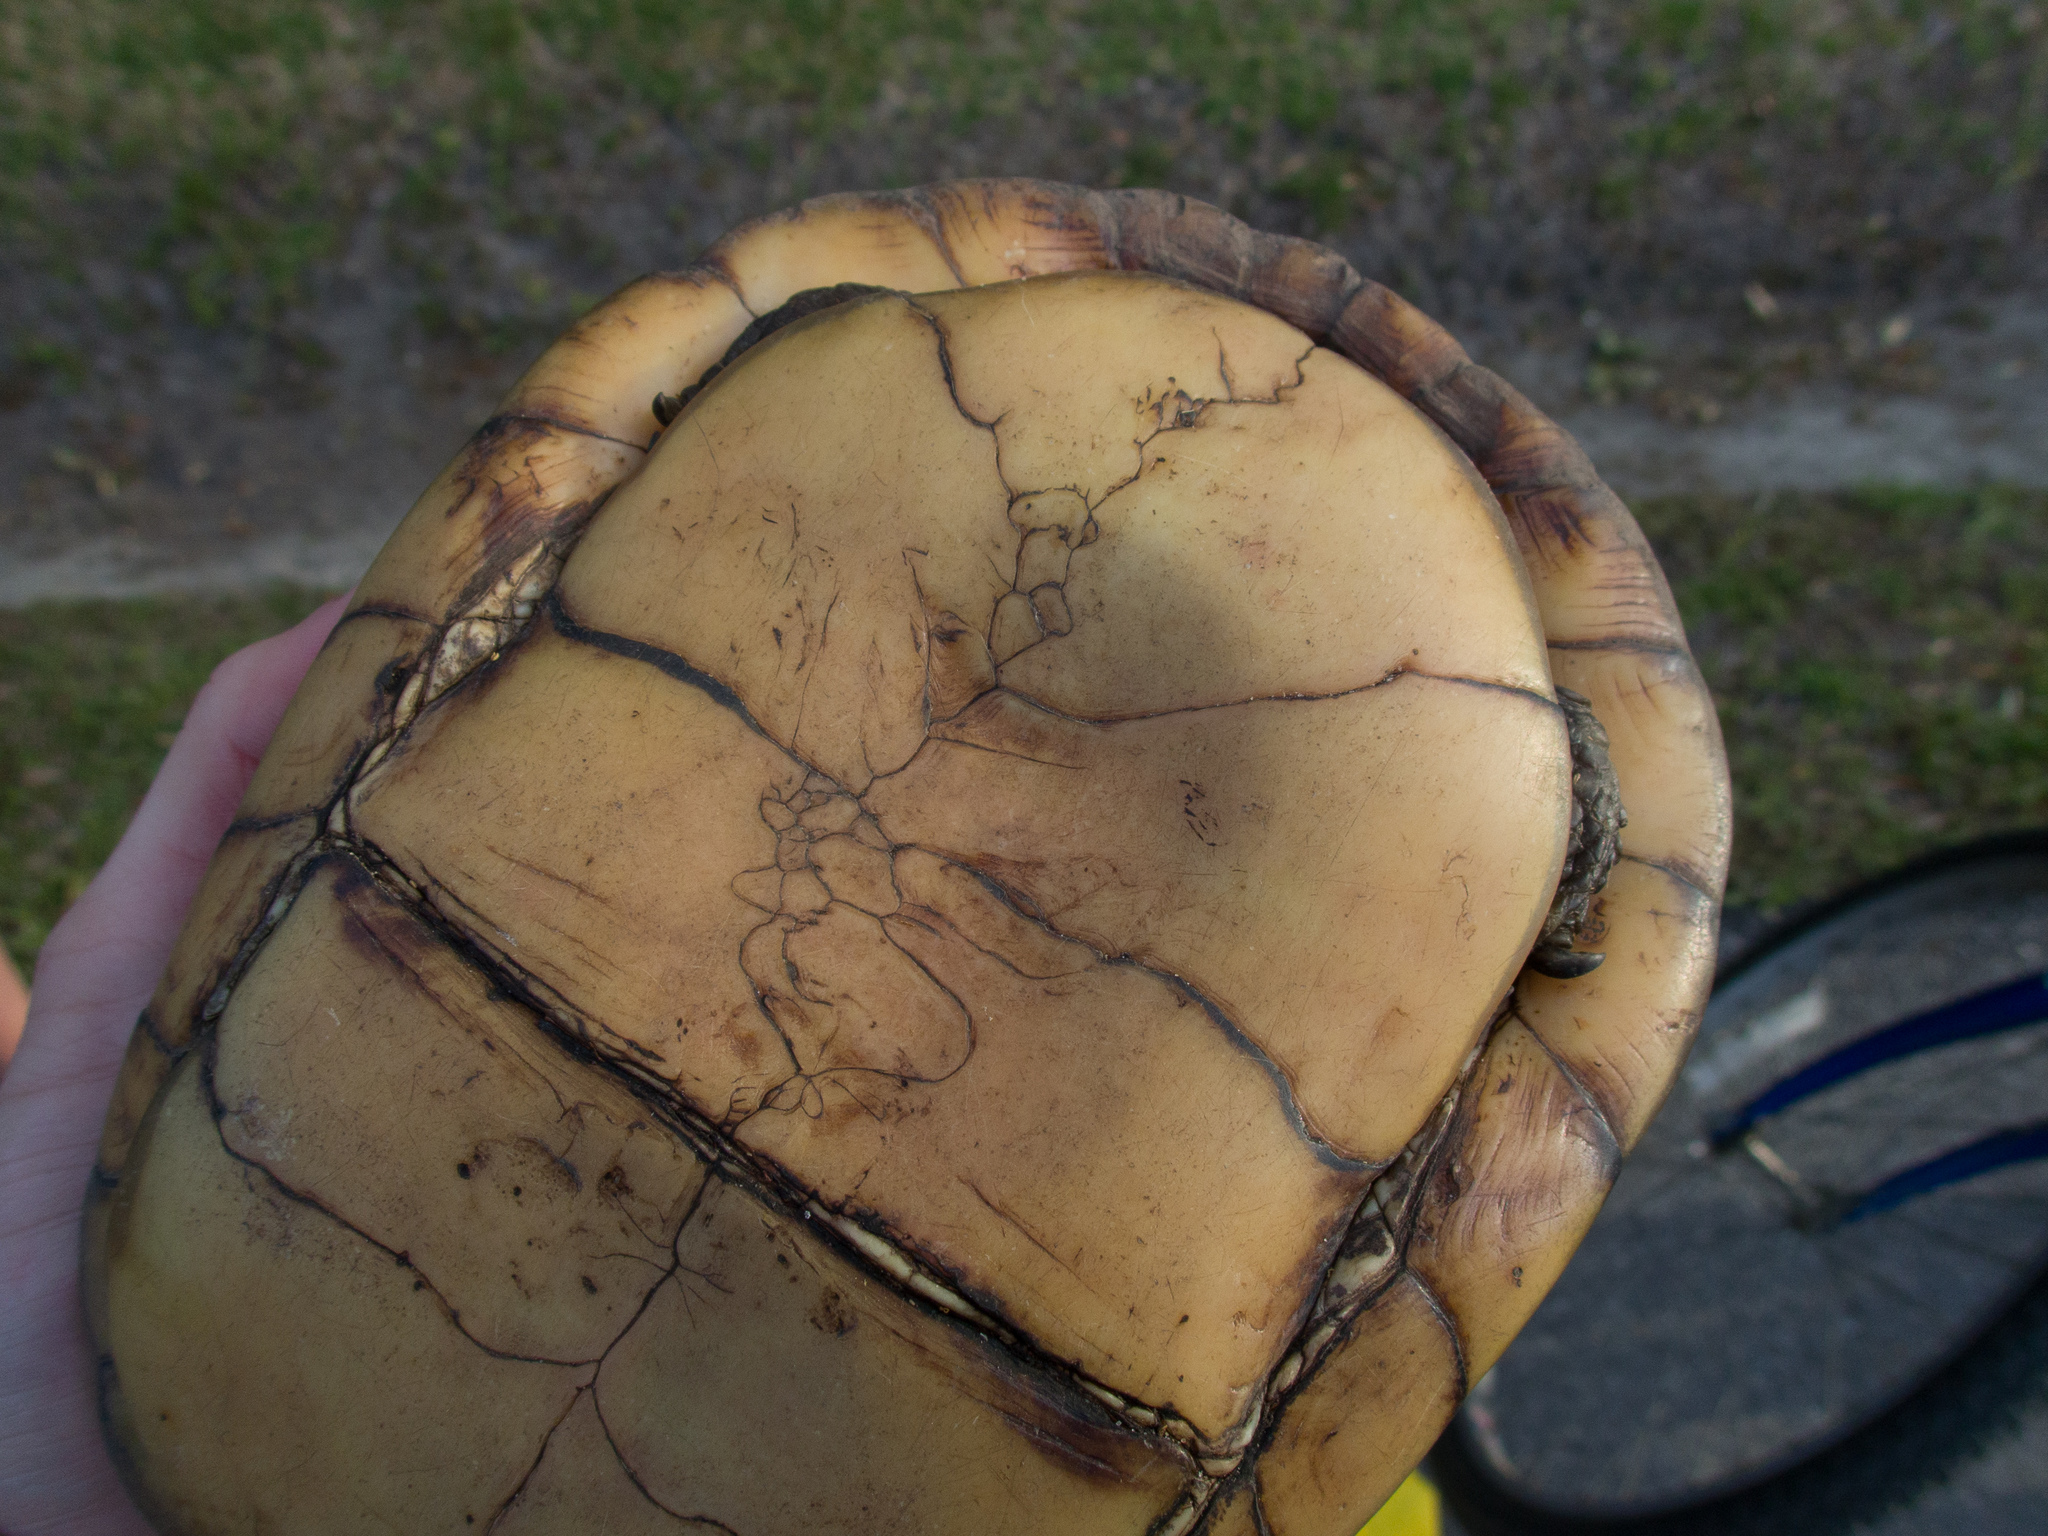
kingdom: Animalia
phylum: Chordata
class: Testudines
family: Emydidae
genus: Terrapene
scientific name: Terrapene carolina
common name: Common box turtle
